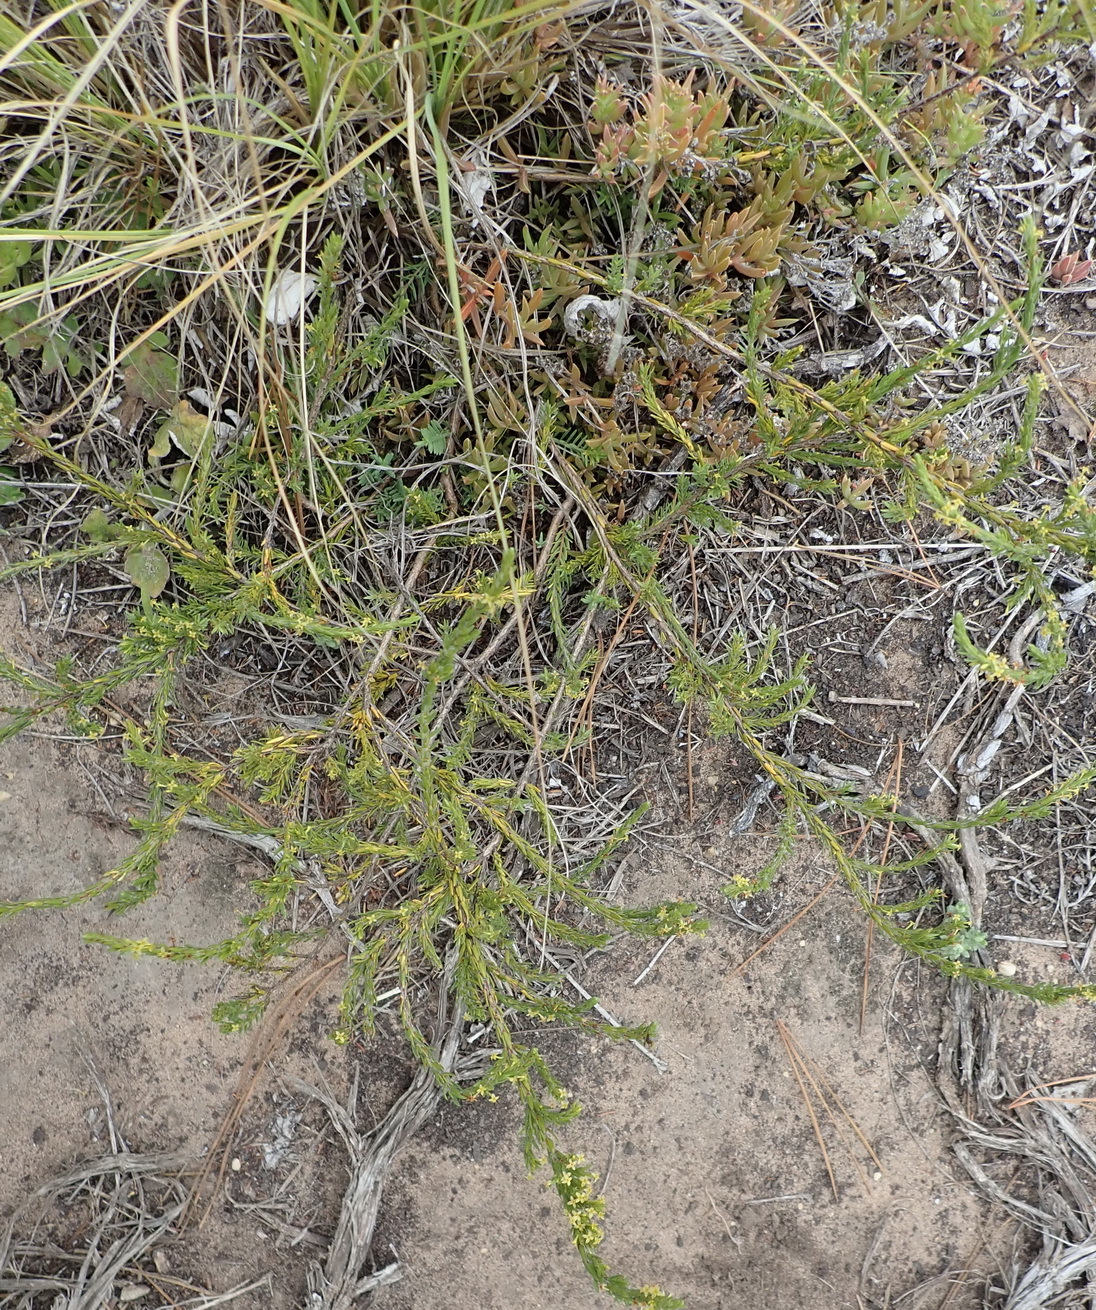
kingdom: Plantae
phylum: Tracheophyta
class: Magnoliopsida
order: Malvales
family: Thymelaeaceae
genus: Struthiola
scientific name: Struthiola parviflora
